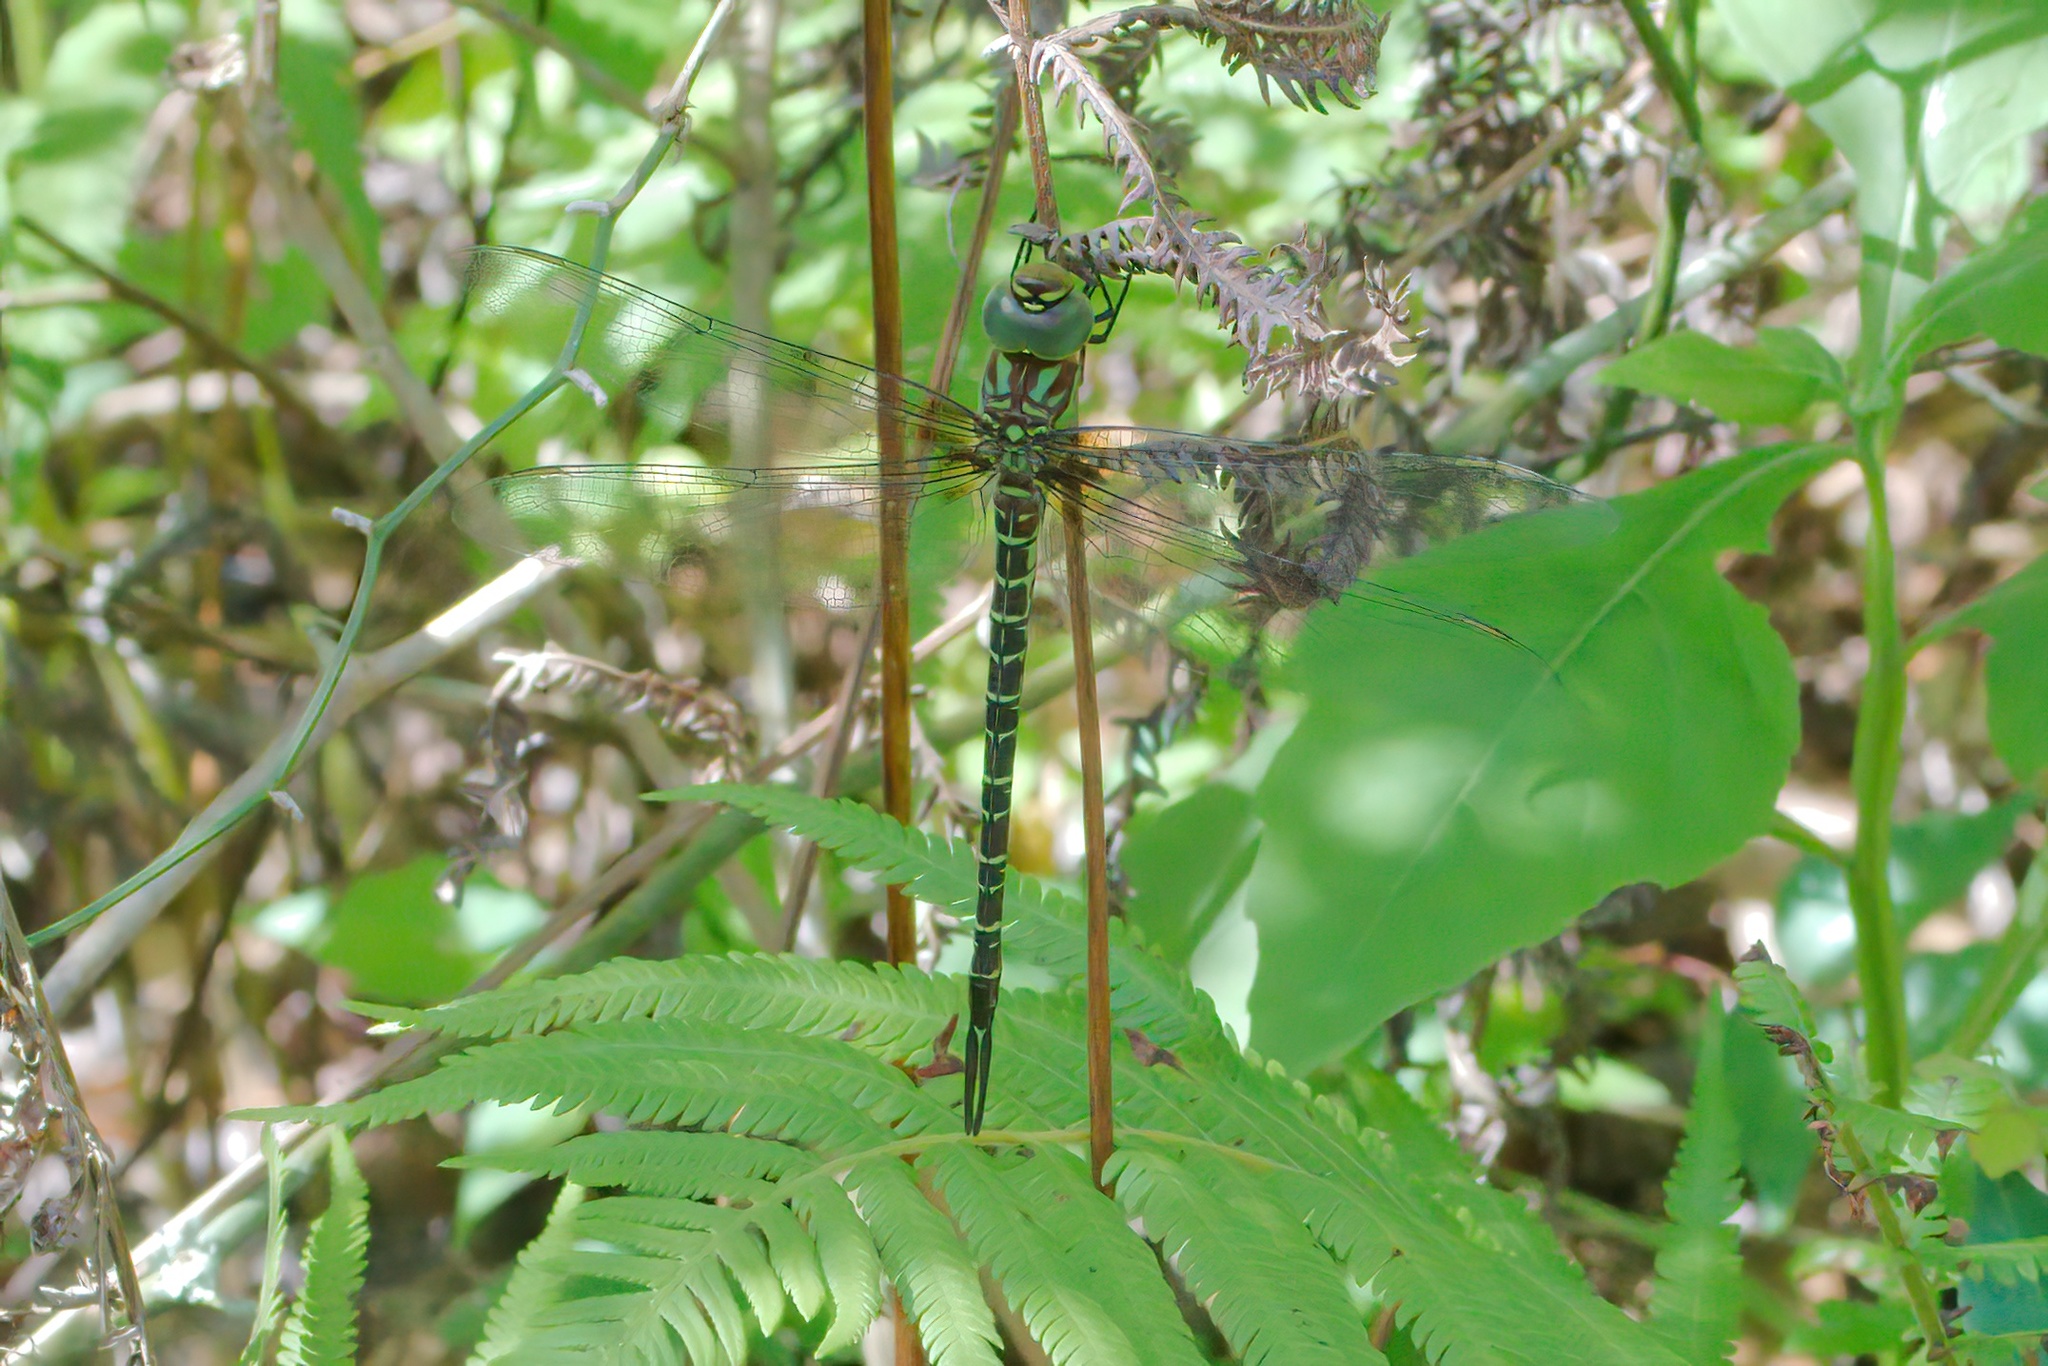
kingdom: Animalia
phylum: Arthropoda
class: Insecta
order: Odonata
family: Aeshnidae
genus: Coryphaeschna
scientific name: Coryphaeschna ingens
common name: Regal darner
